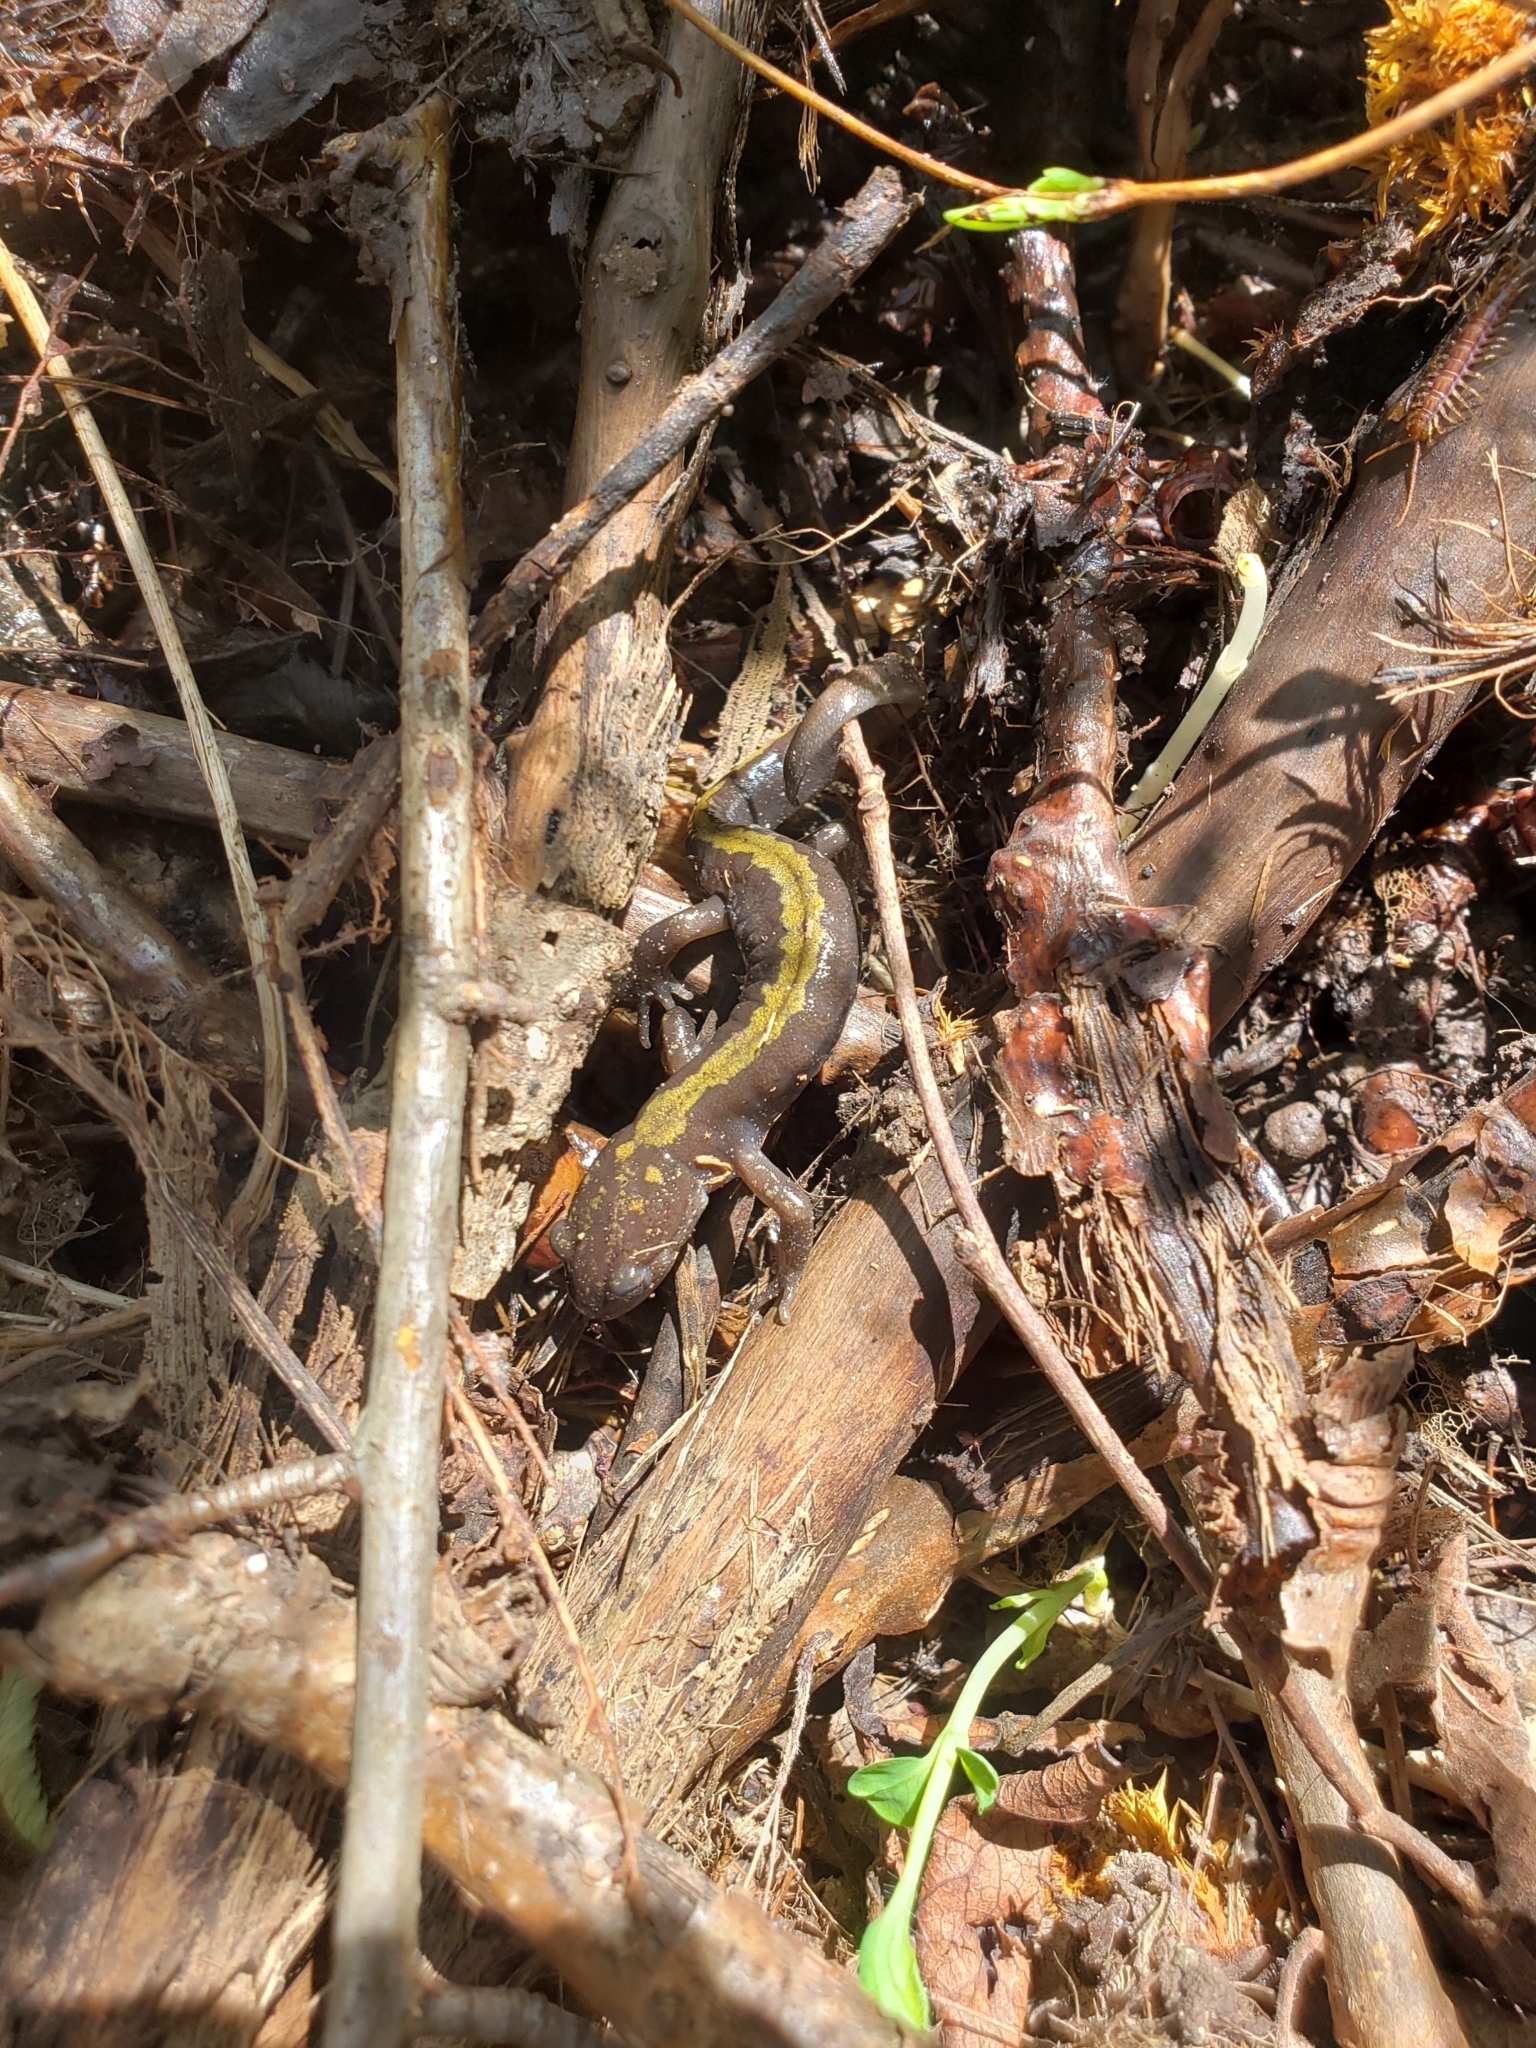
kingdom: Animalia
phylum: Chordata
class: Amphibia
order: Caudata
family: Ambystomatidae
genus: Ambystoma
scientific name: Ambystoma macrodactylum
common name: Long-toed salamander
